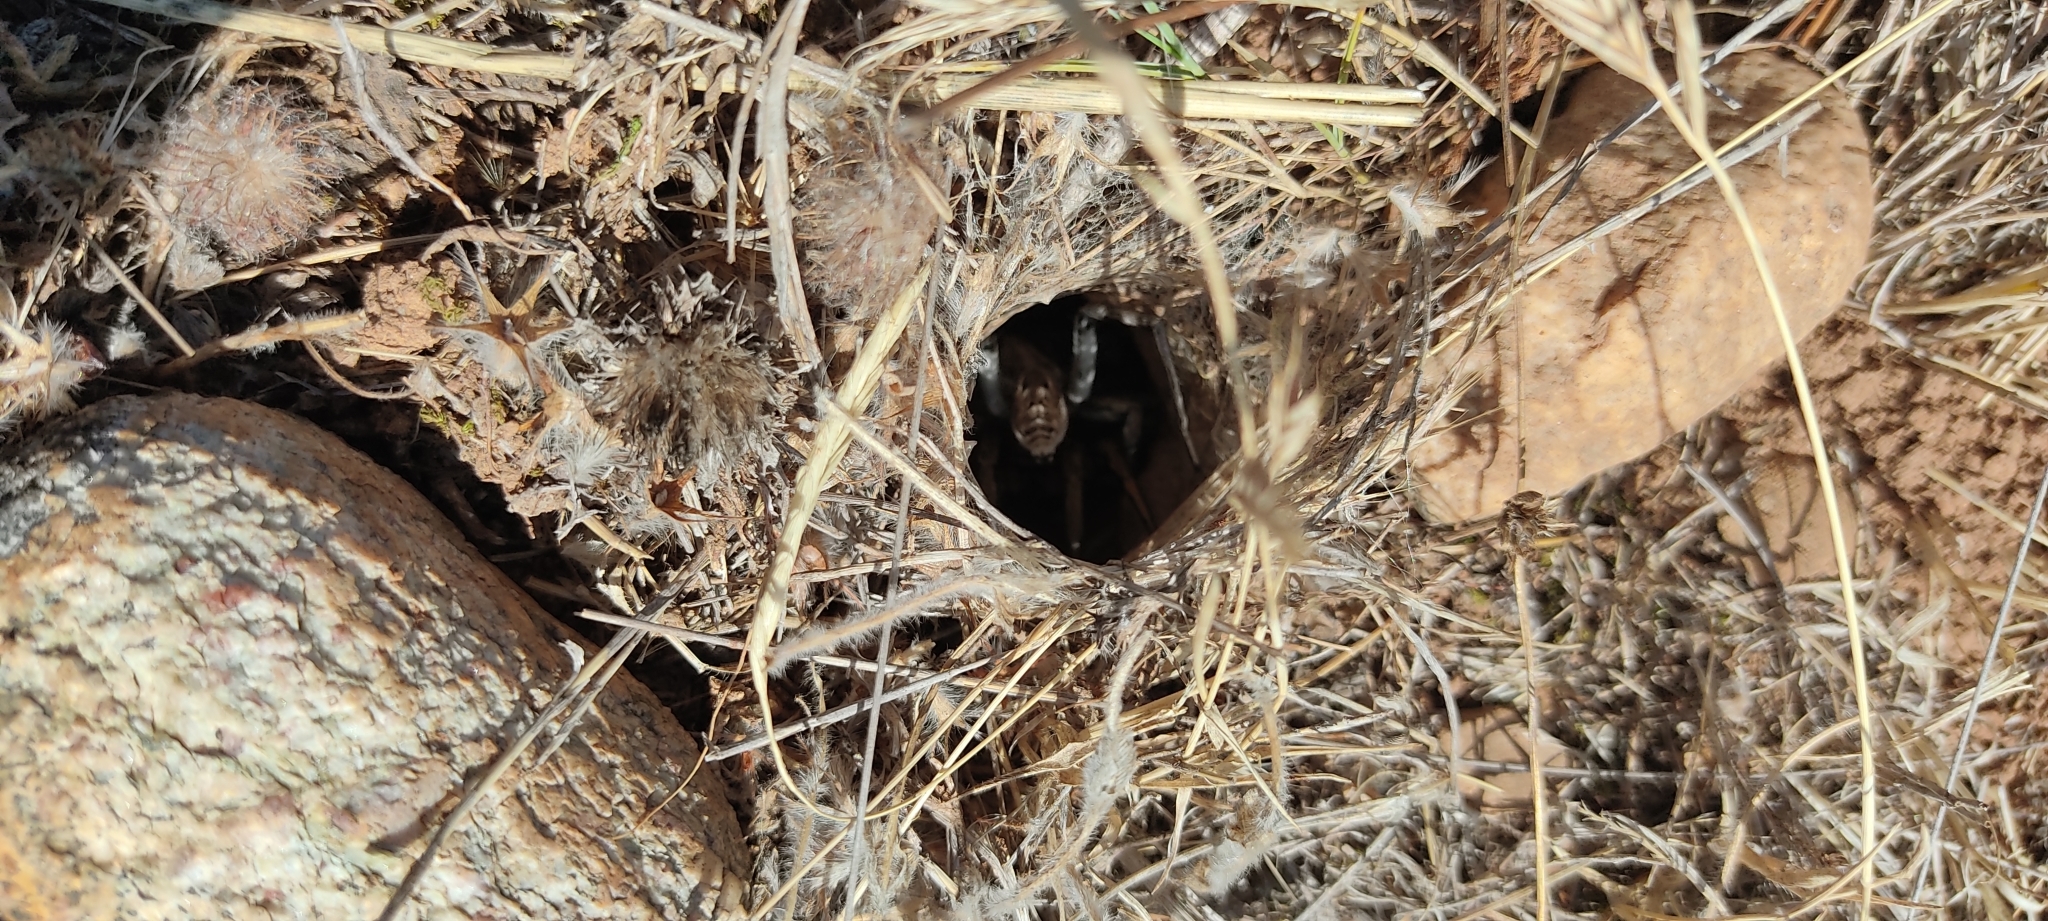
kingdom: Animalia
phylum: Arthropoda
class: Arachnida
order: Araneae
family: Lycosidae
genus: Lycosa
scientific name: Lycosa tarantula
